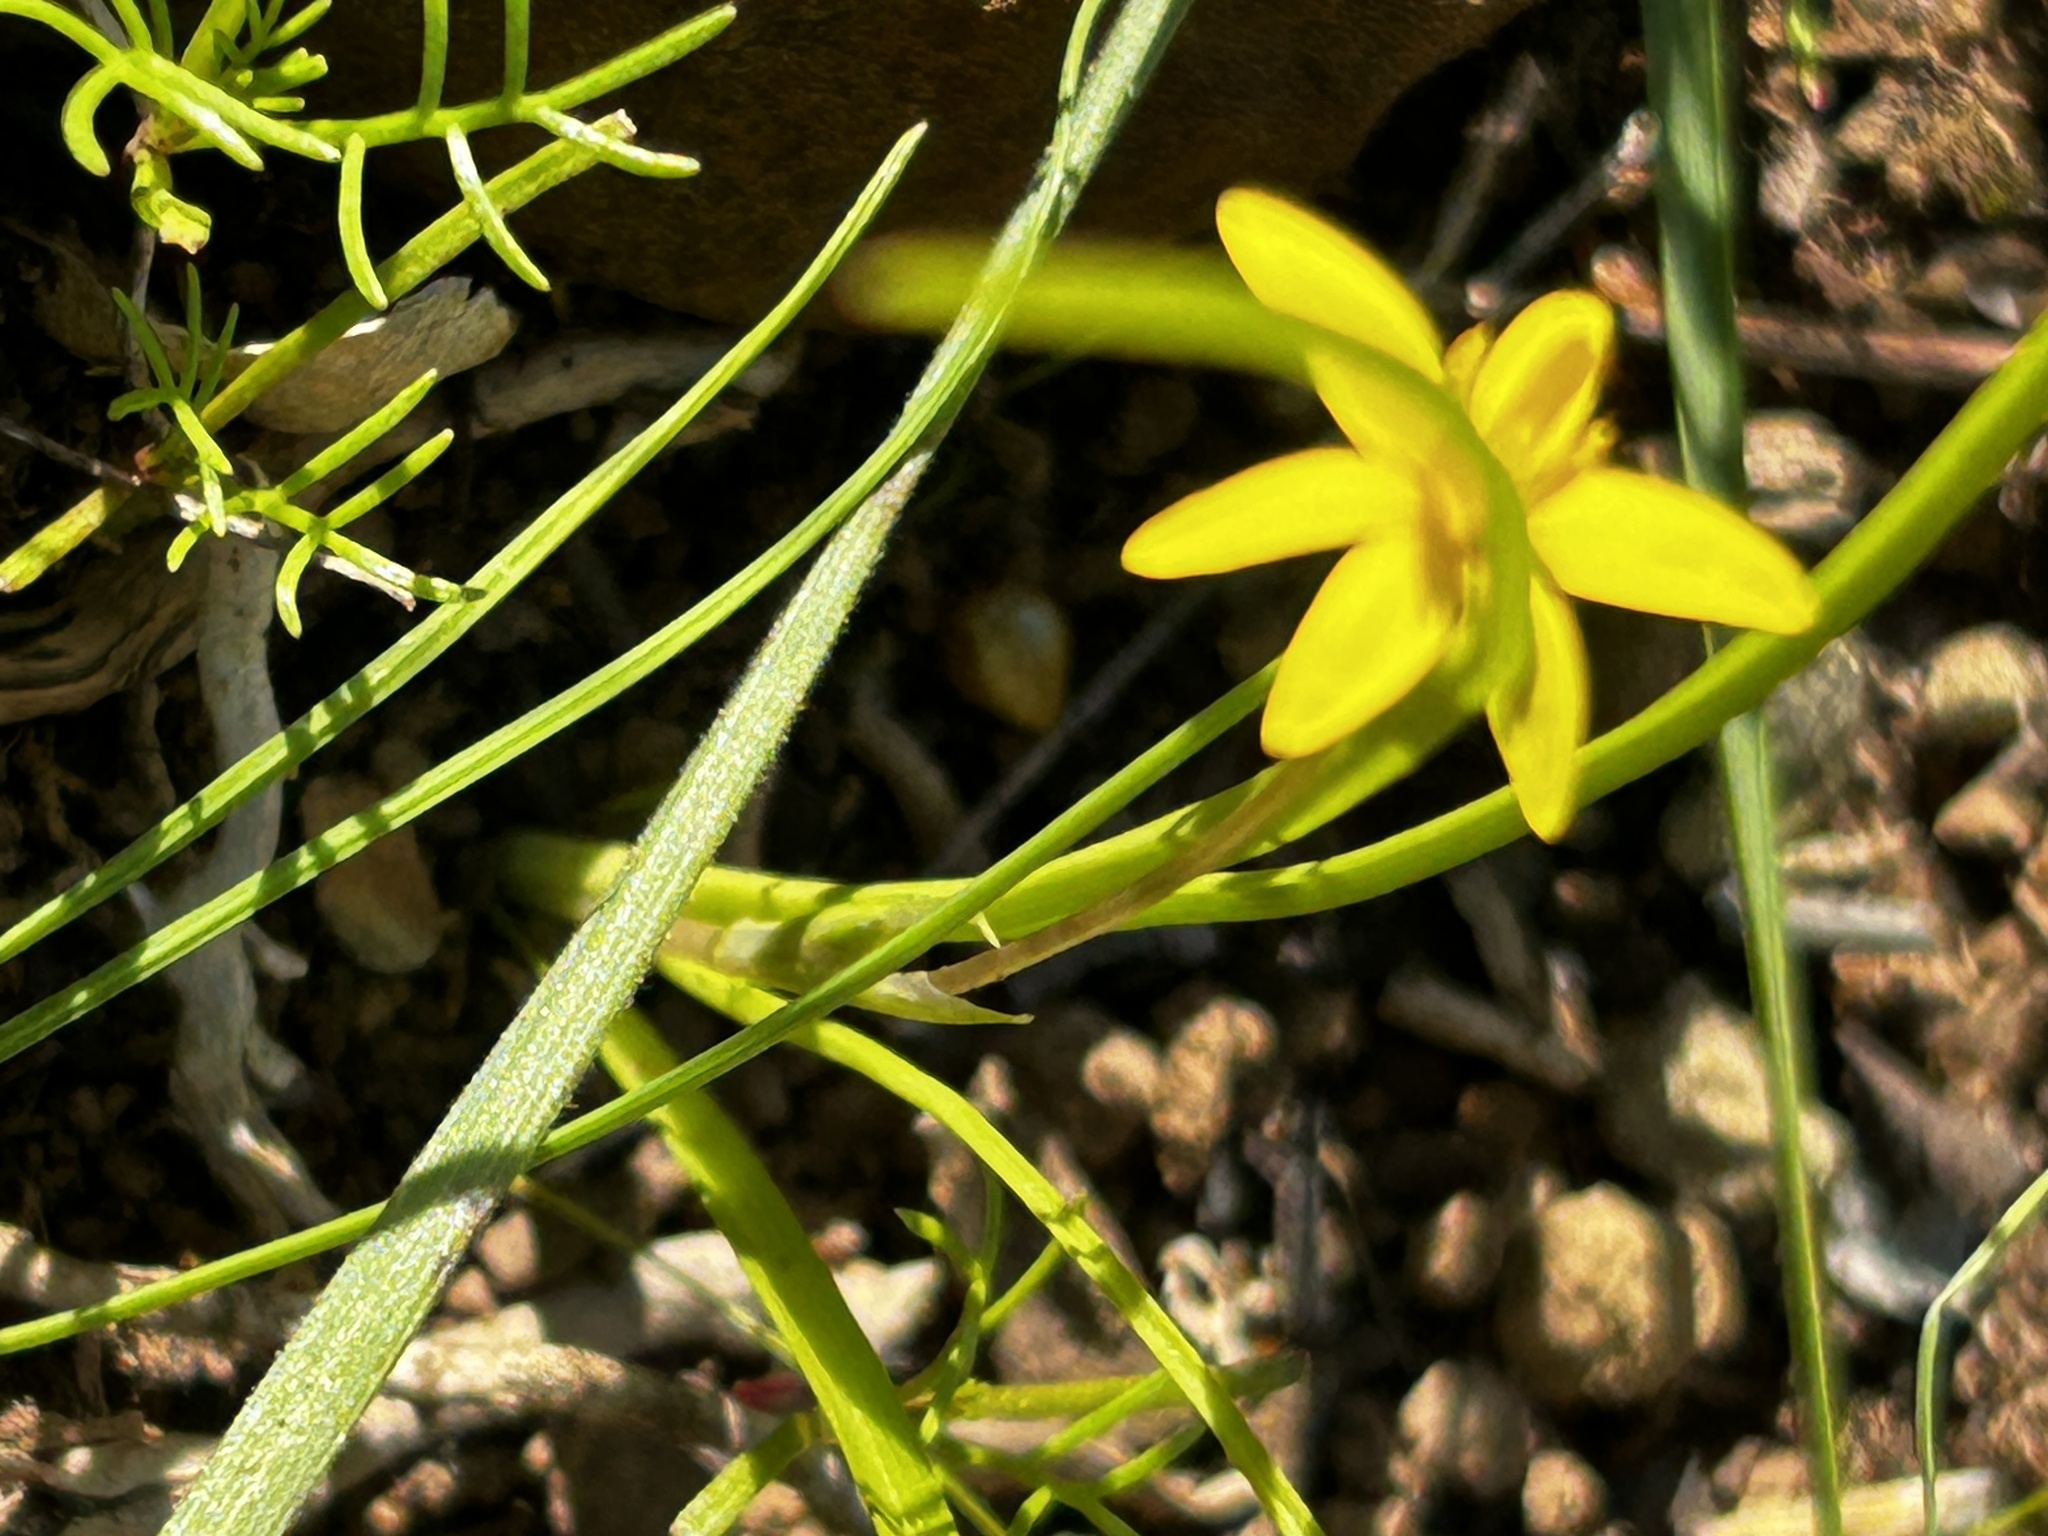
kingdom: Plantae
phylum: Tracheophyta
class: Liliopsida
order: Asparagales
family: Hypoxidaceae
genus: Pauridia
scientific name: Pauridia flaccida
